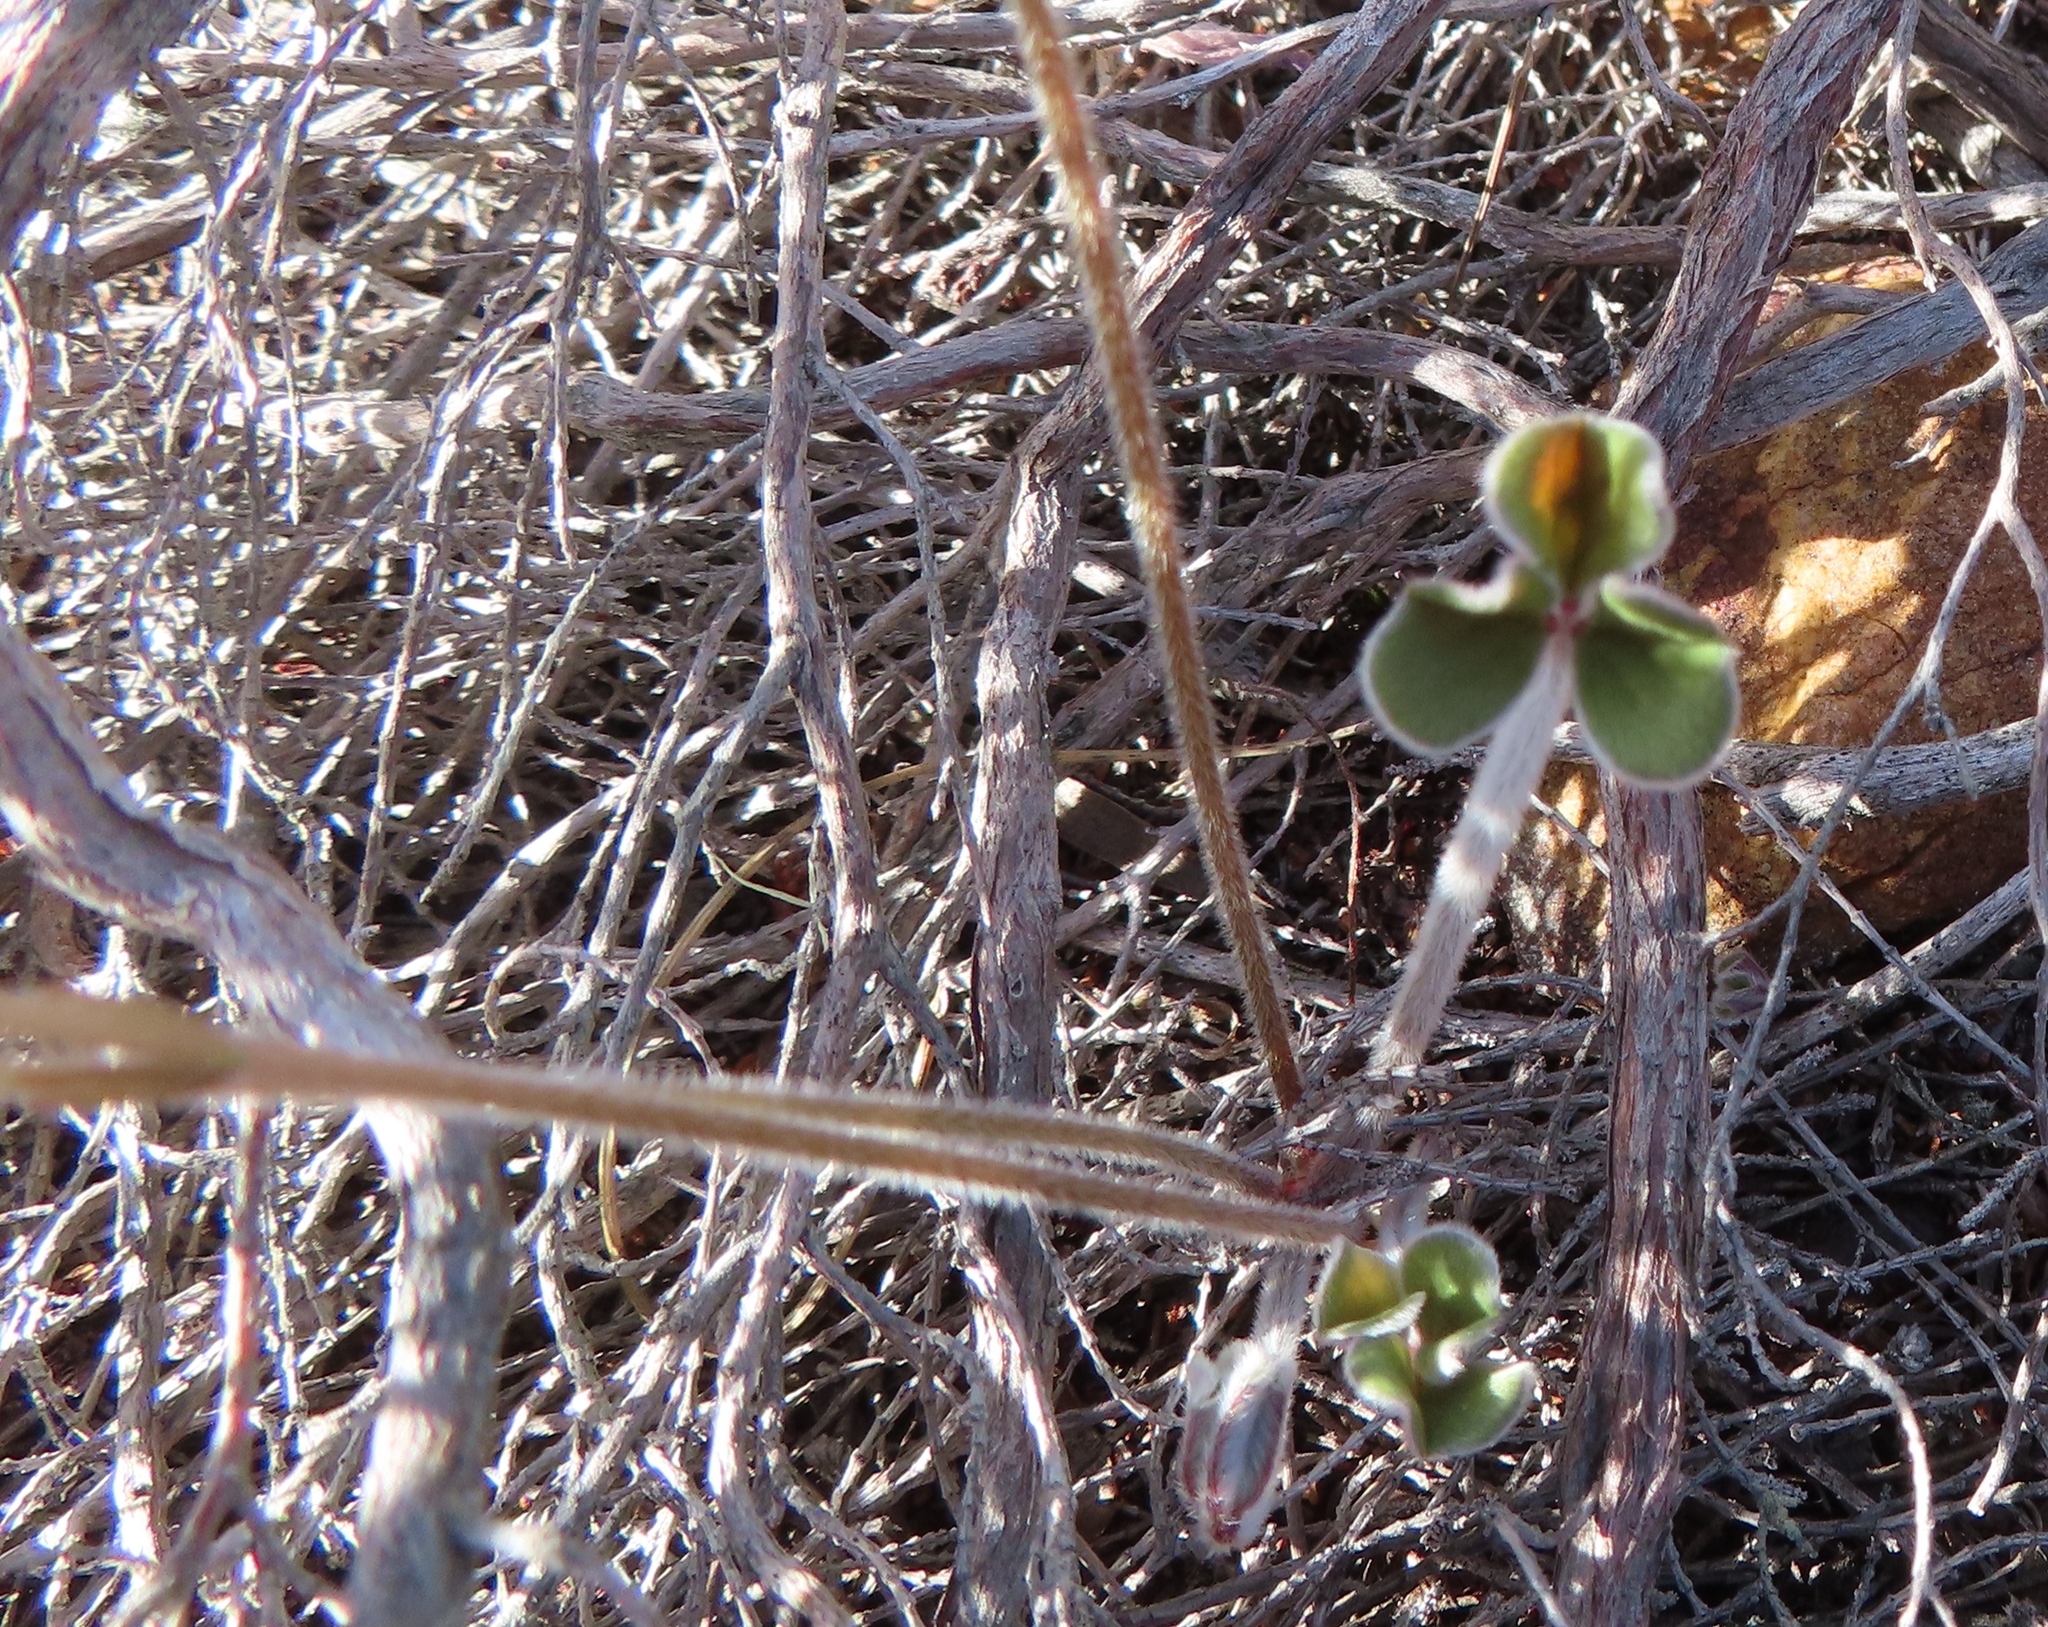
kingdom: Plantae
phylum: Tracheophyta
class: Magnoliopsida
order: Oxalidales
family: Oxalidaceae
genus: Oxalis
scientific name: Oxalis truncatula
